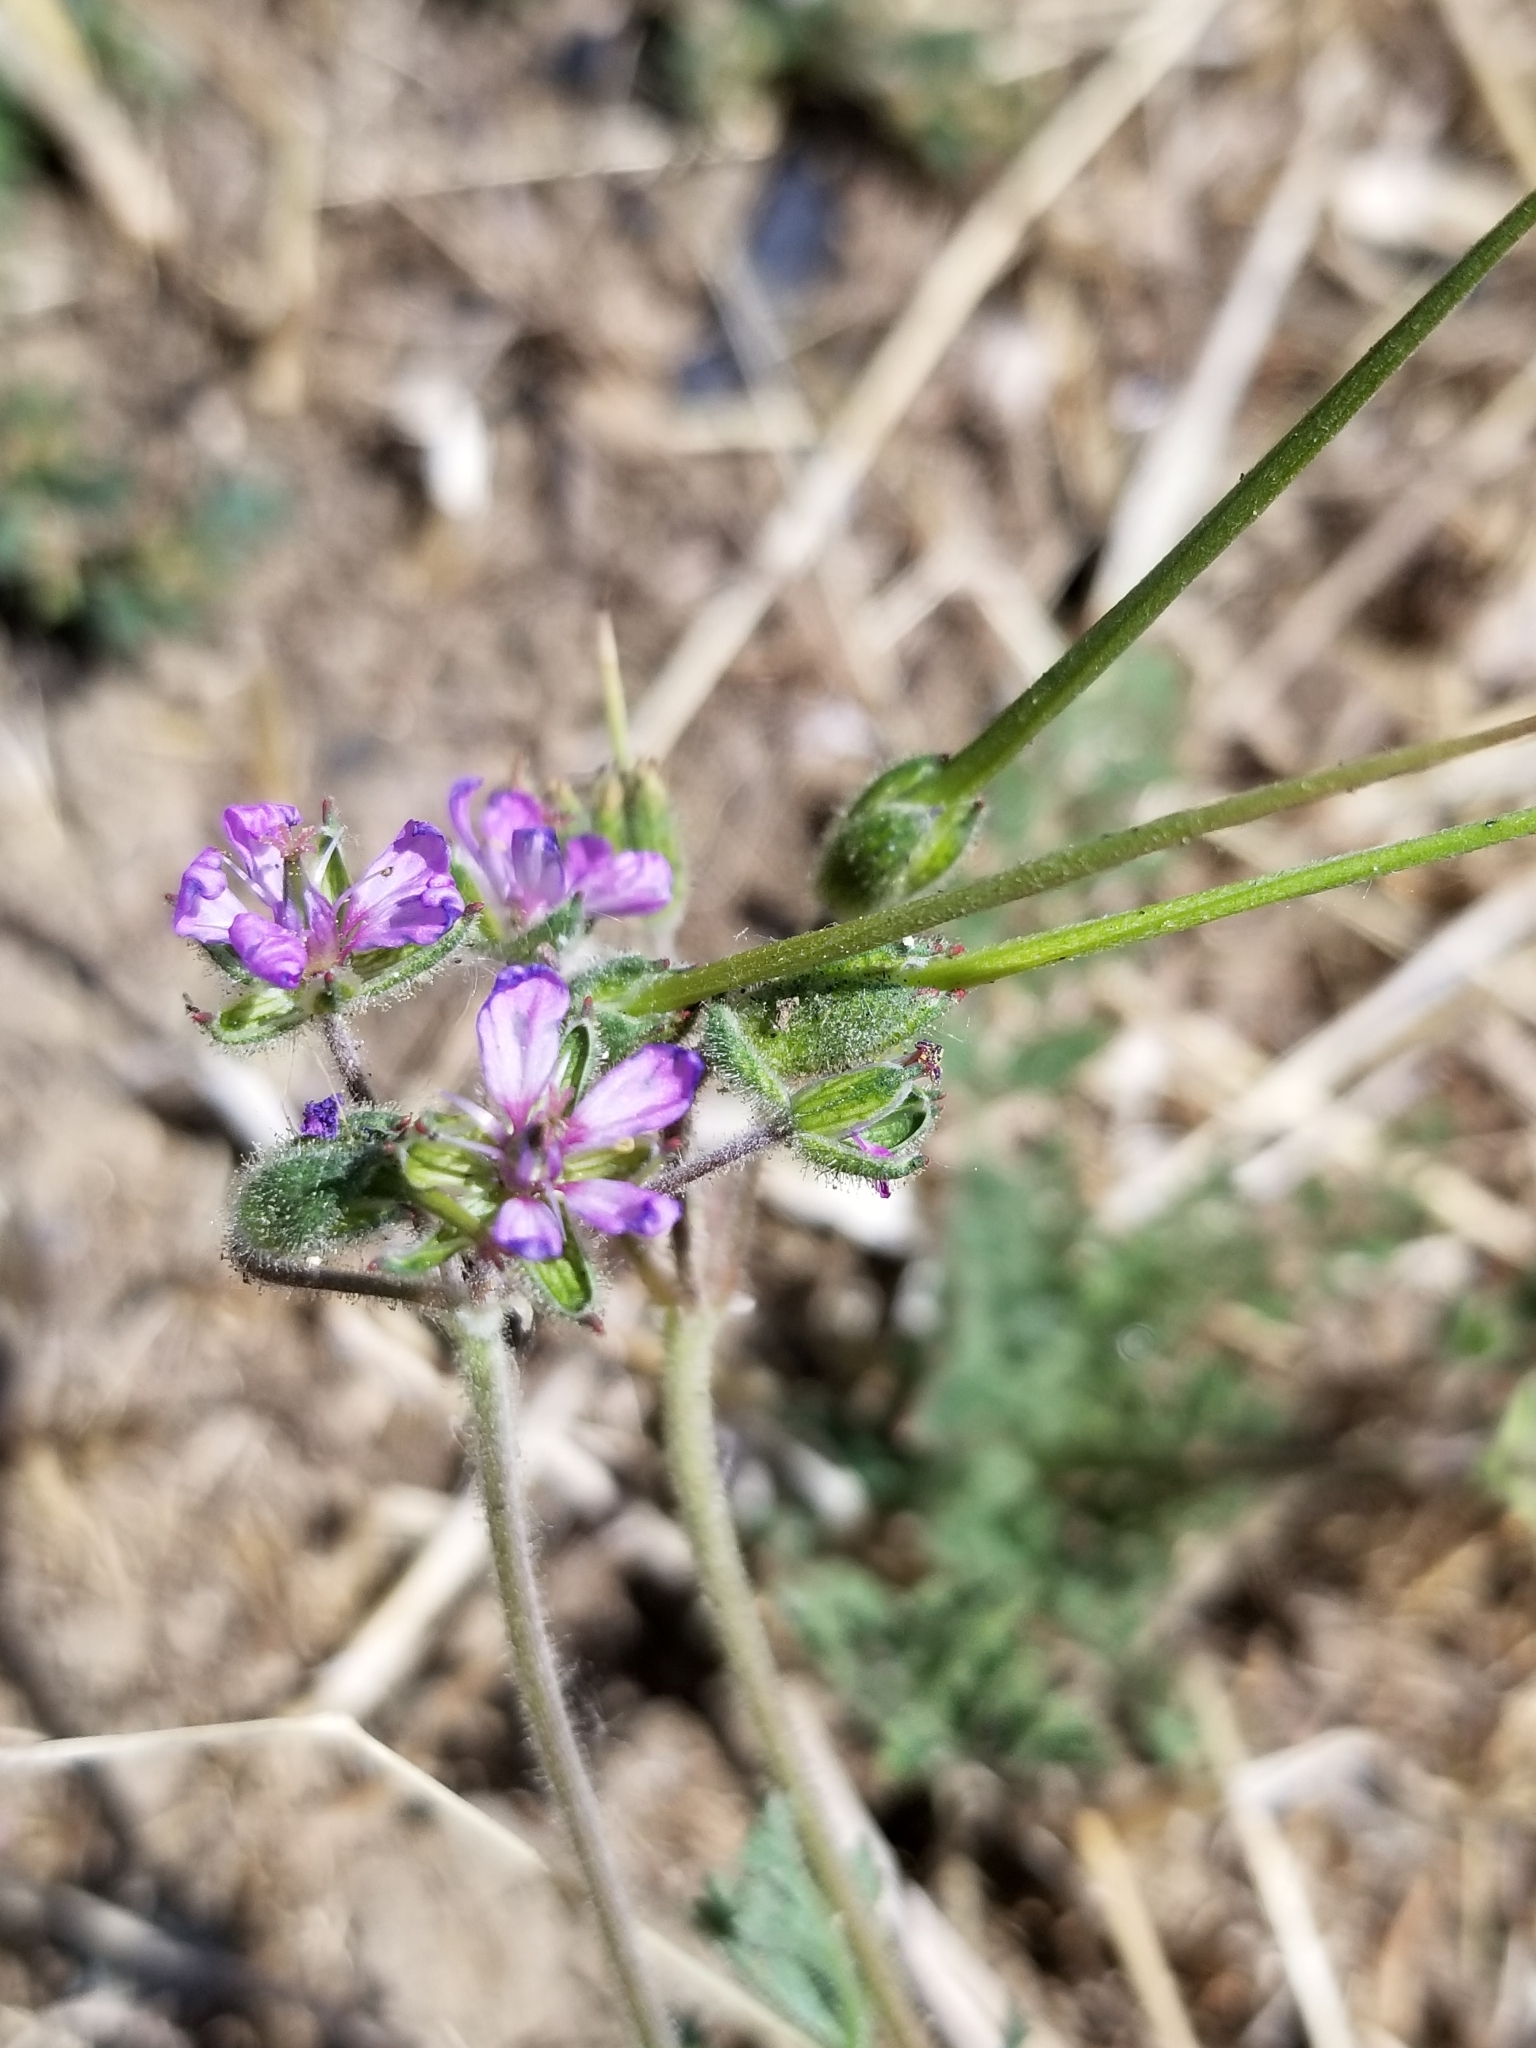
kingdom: Plantae
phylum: Tracheophyta
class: Magnoliopsida
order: Geraniales
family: Geraniaceae
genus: Erodium
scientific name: Erodium moschatum
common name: Musk stork's-bill
